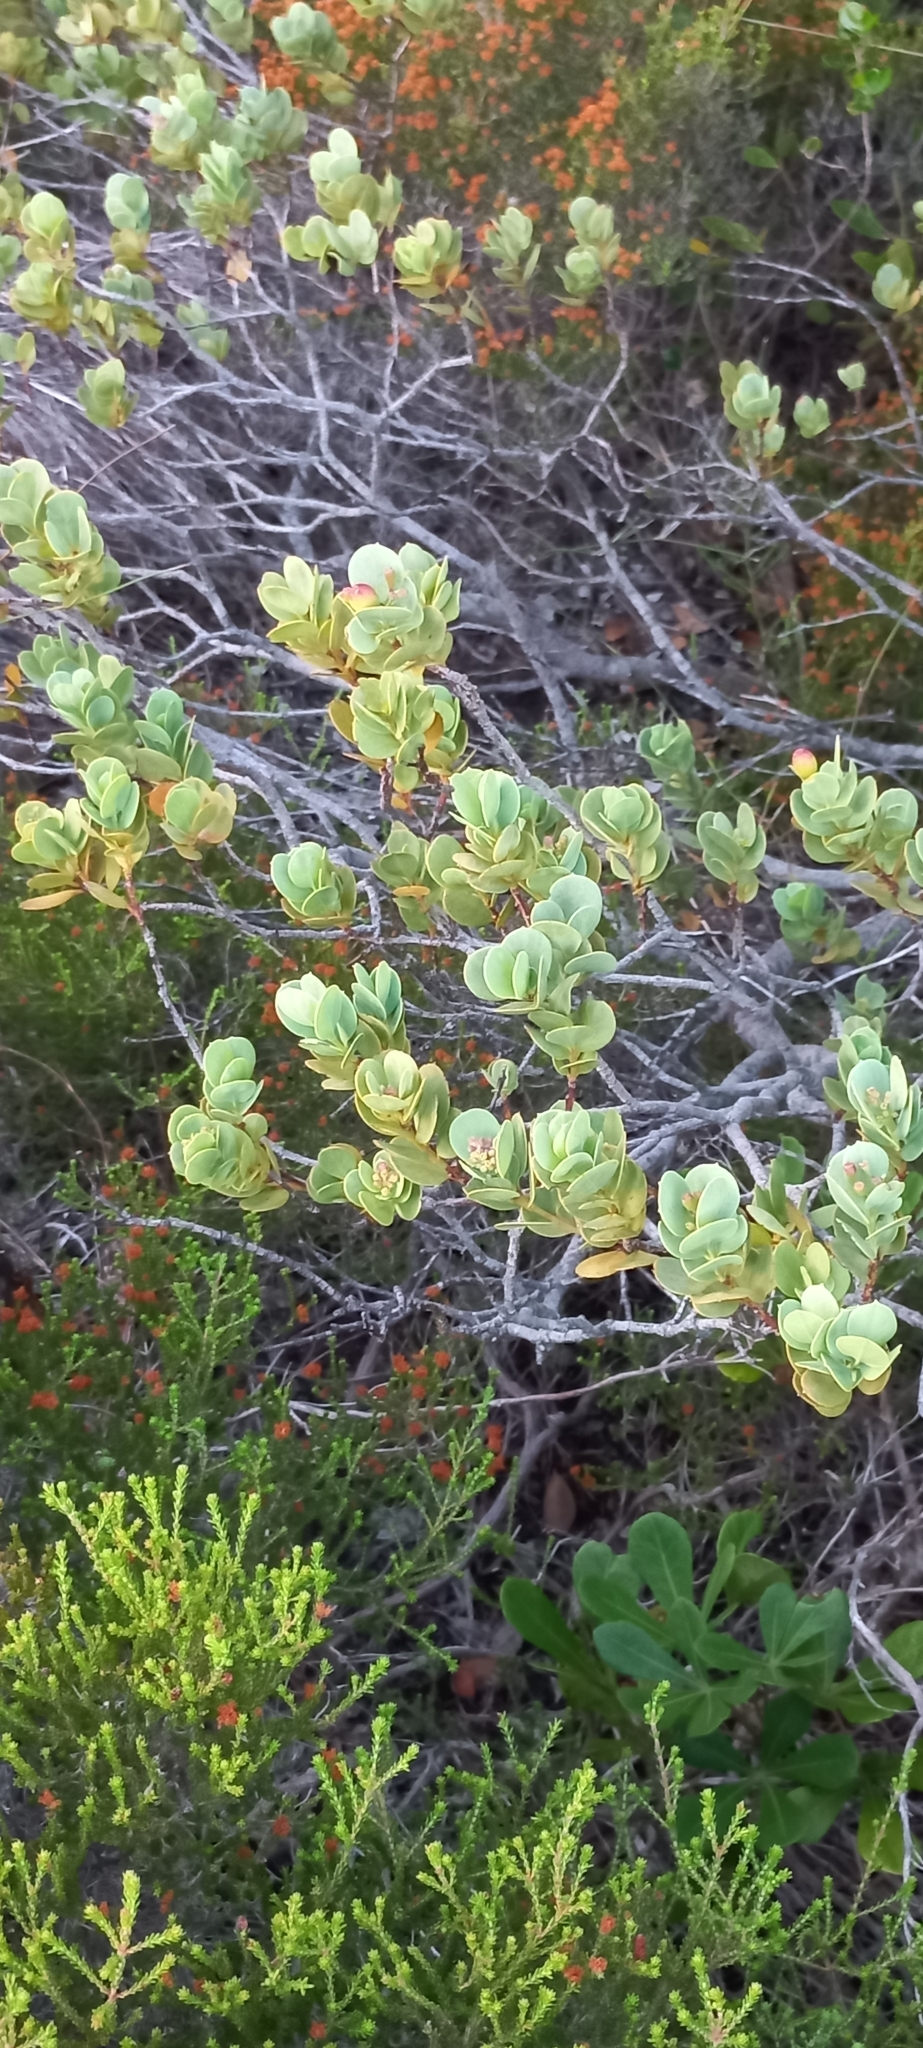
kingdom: Plantae
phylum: Tracheophyta
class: Magnoliopsida
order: Santalales
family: Santalaceae
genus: Osyris
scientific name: Osyris compressa
